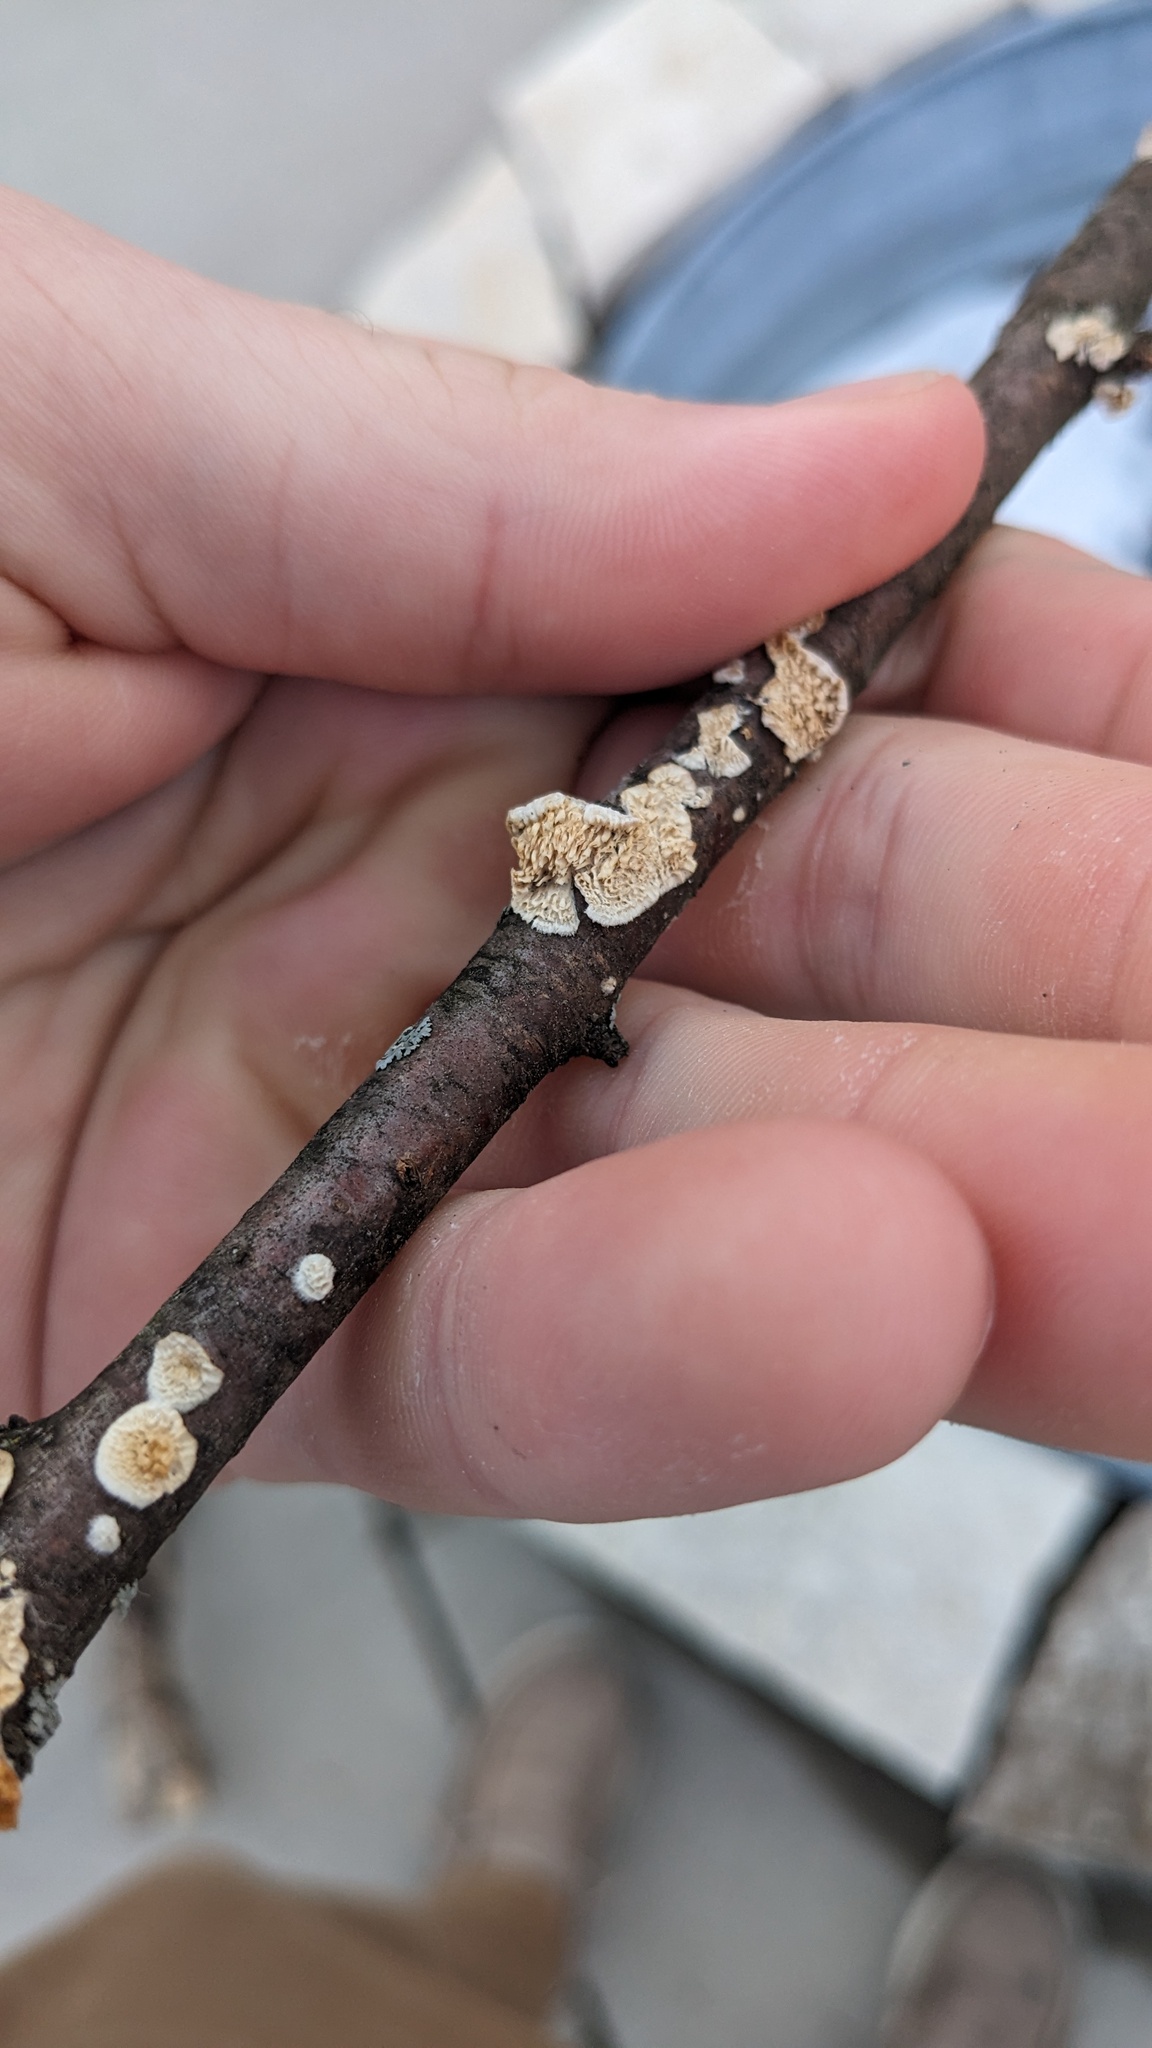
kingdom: Fungi
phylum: Basidiomycota
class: Agaricomycetes
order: Polyporales
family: Irpicaceae
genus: Irpex
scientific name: Irpex lacteus
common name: Milk-white toothed polypore
